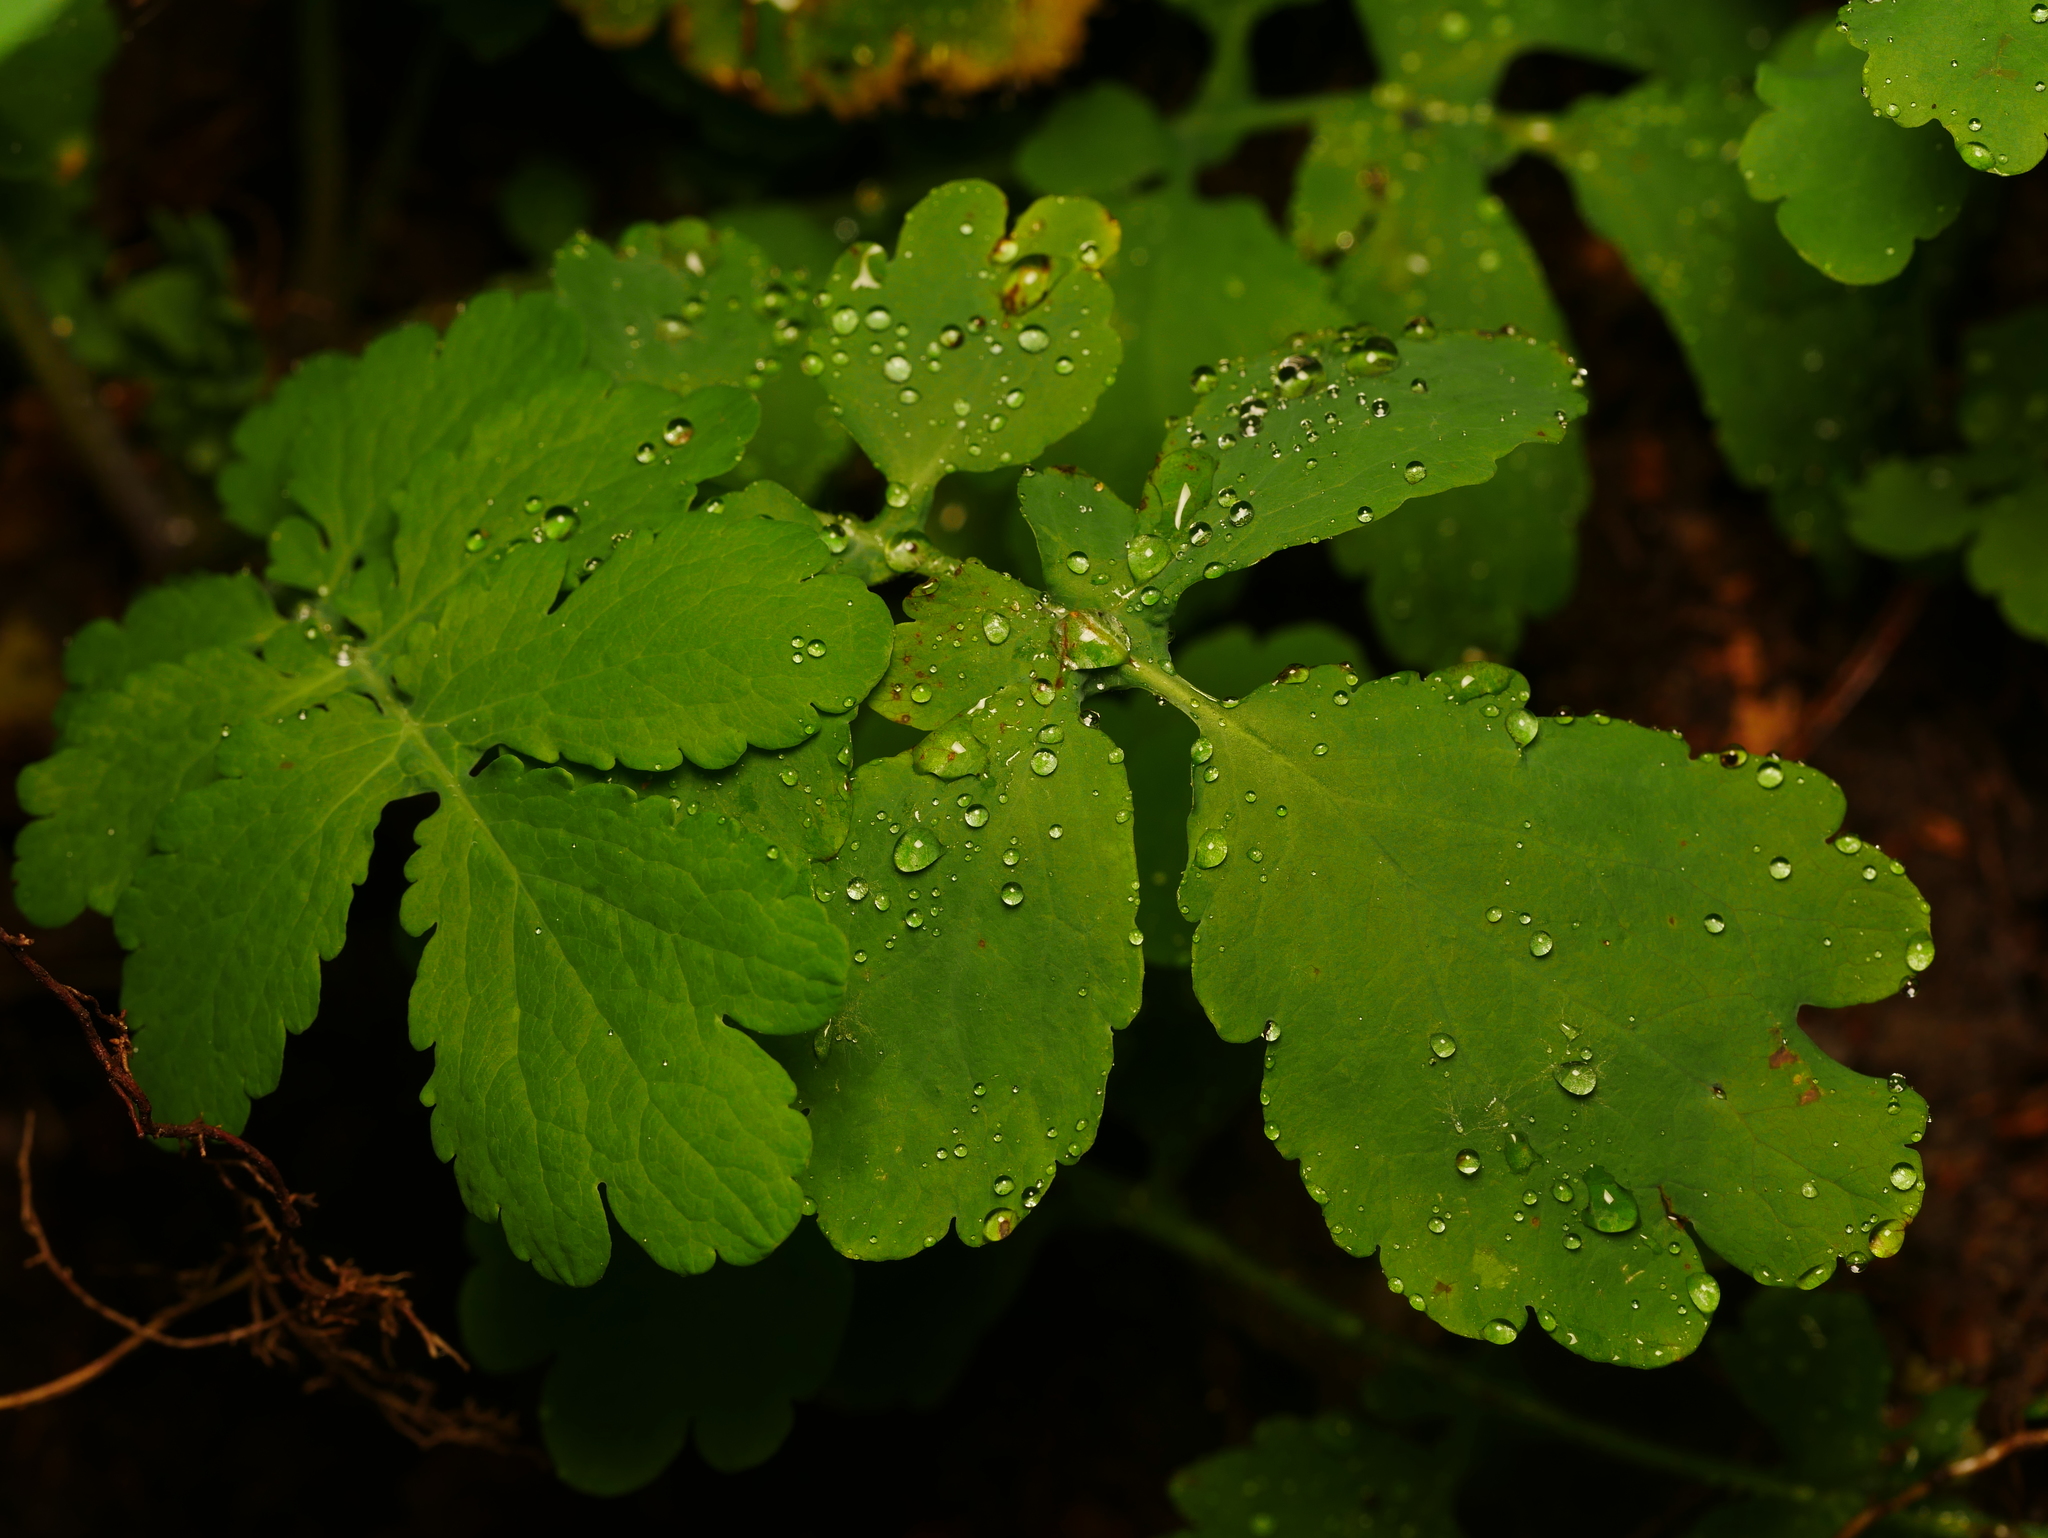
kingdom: Plantae
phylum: Tracheophyta
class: Magnoliopsida
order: Ranunculales
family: Papaveraceae
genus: Chelidonium
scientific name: Chelidonium majus
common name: Greater celandine
